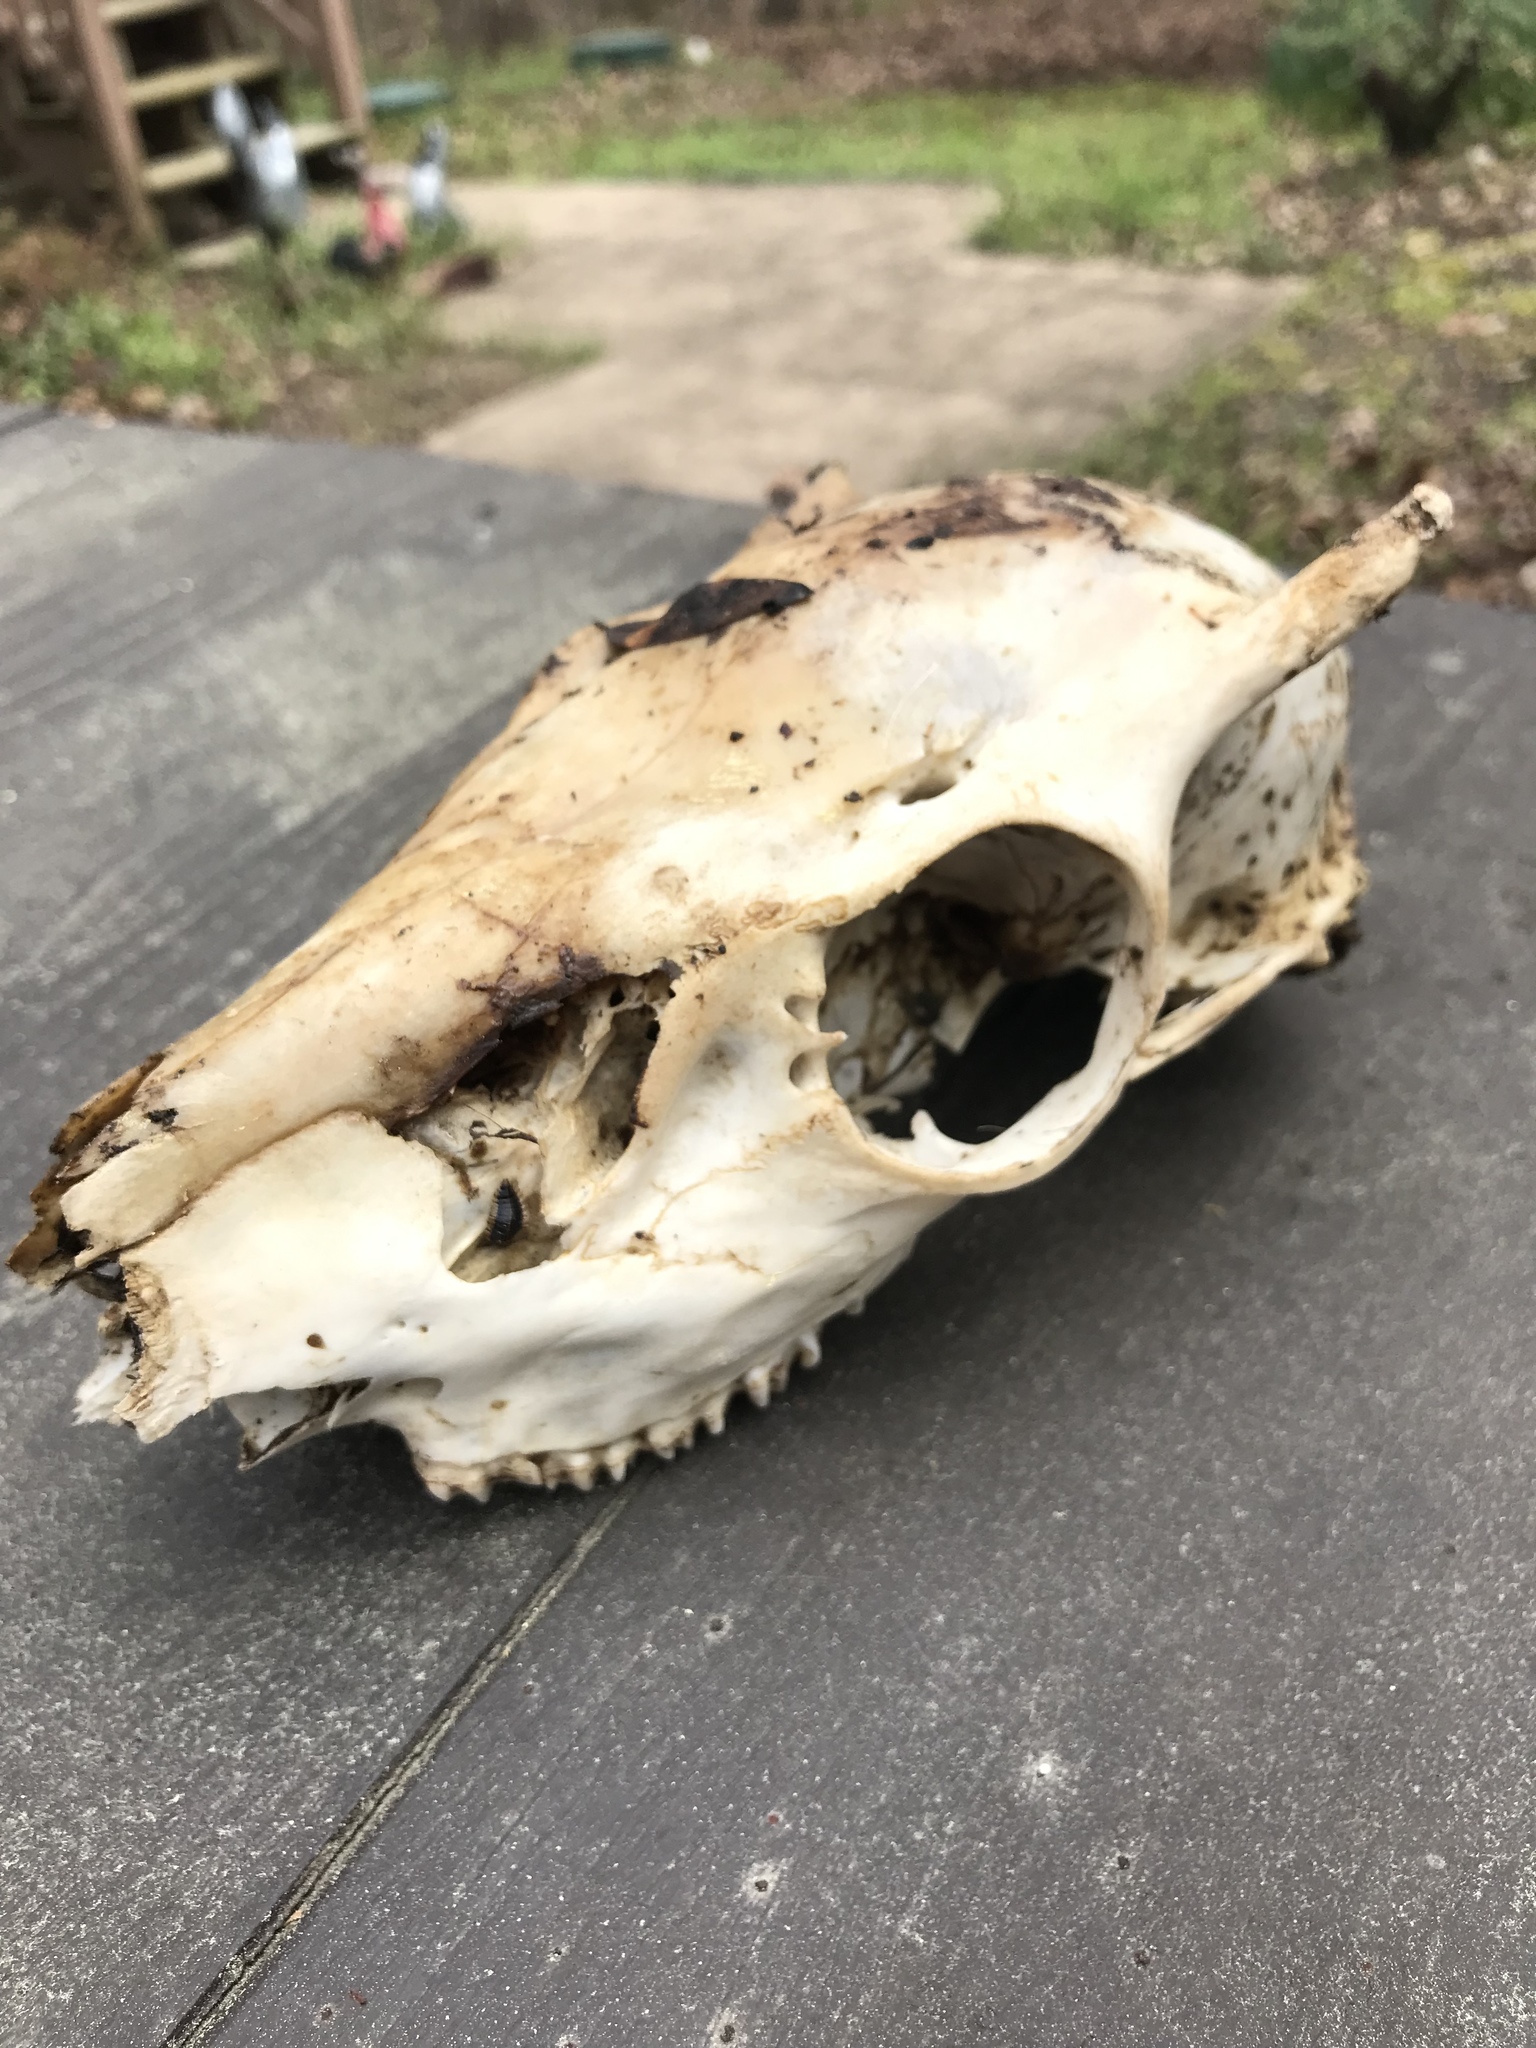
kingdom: Animalia
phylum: Chordata
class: Mammalia
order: Artiodactyla
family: Cervidae
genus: Odocoileus
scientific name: Odocoileus virginianus
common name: White-tailed deer
